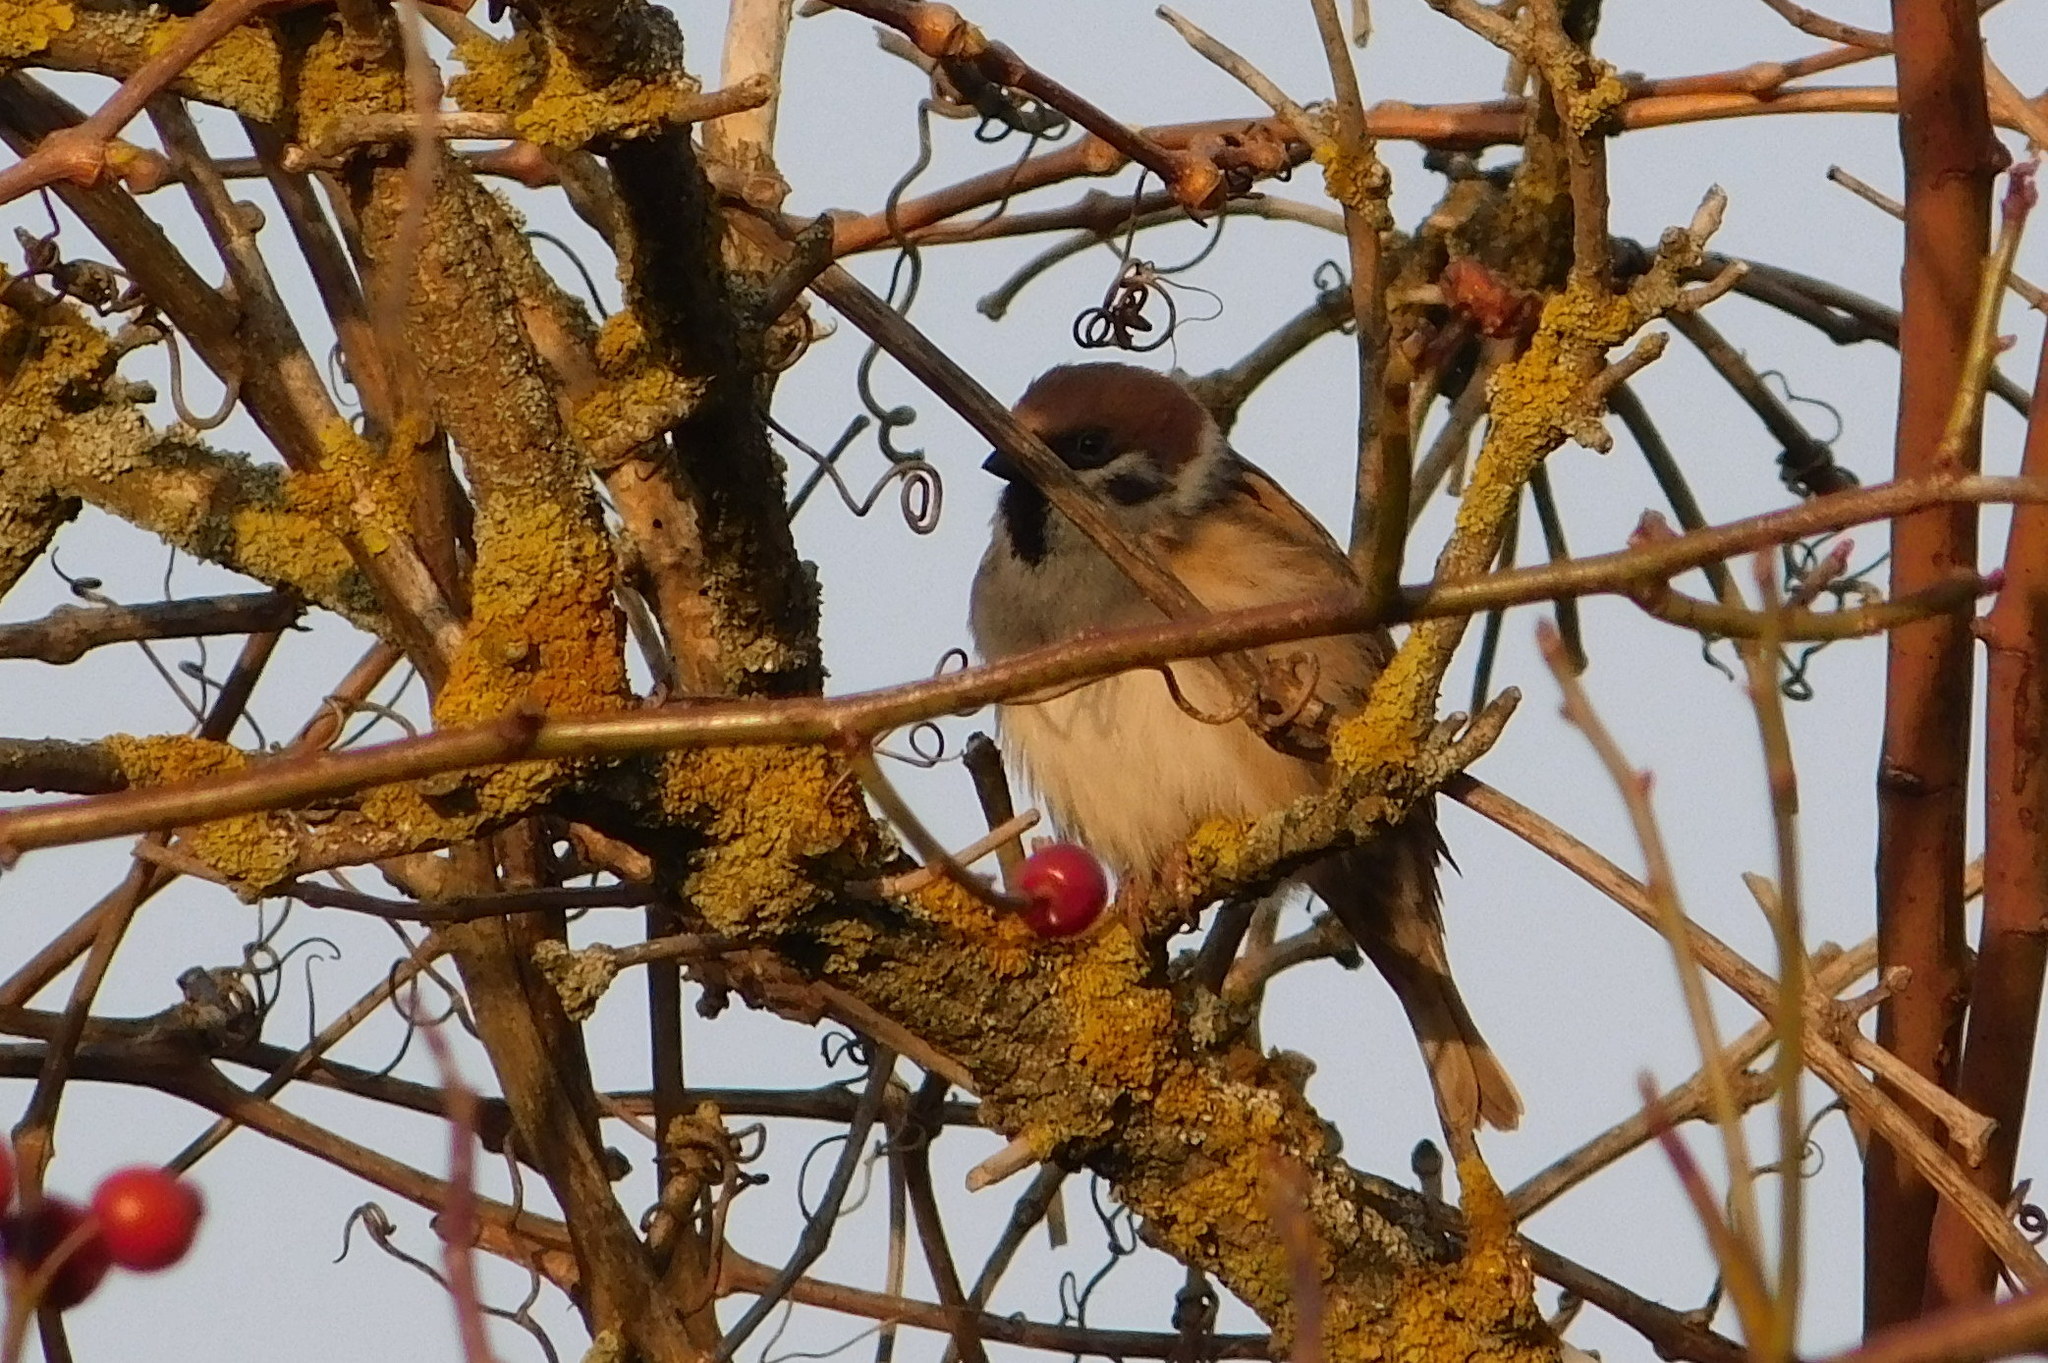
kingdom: Animalia
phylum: Chordata
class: Aves
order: Passeriformes
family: Passeridae
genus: Passer
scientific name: Passer montanus
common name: Eurasian tree sparrow
